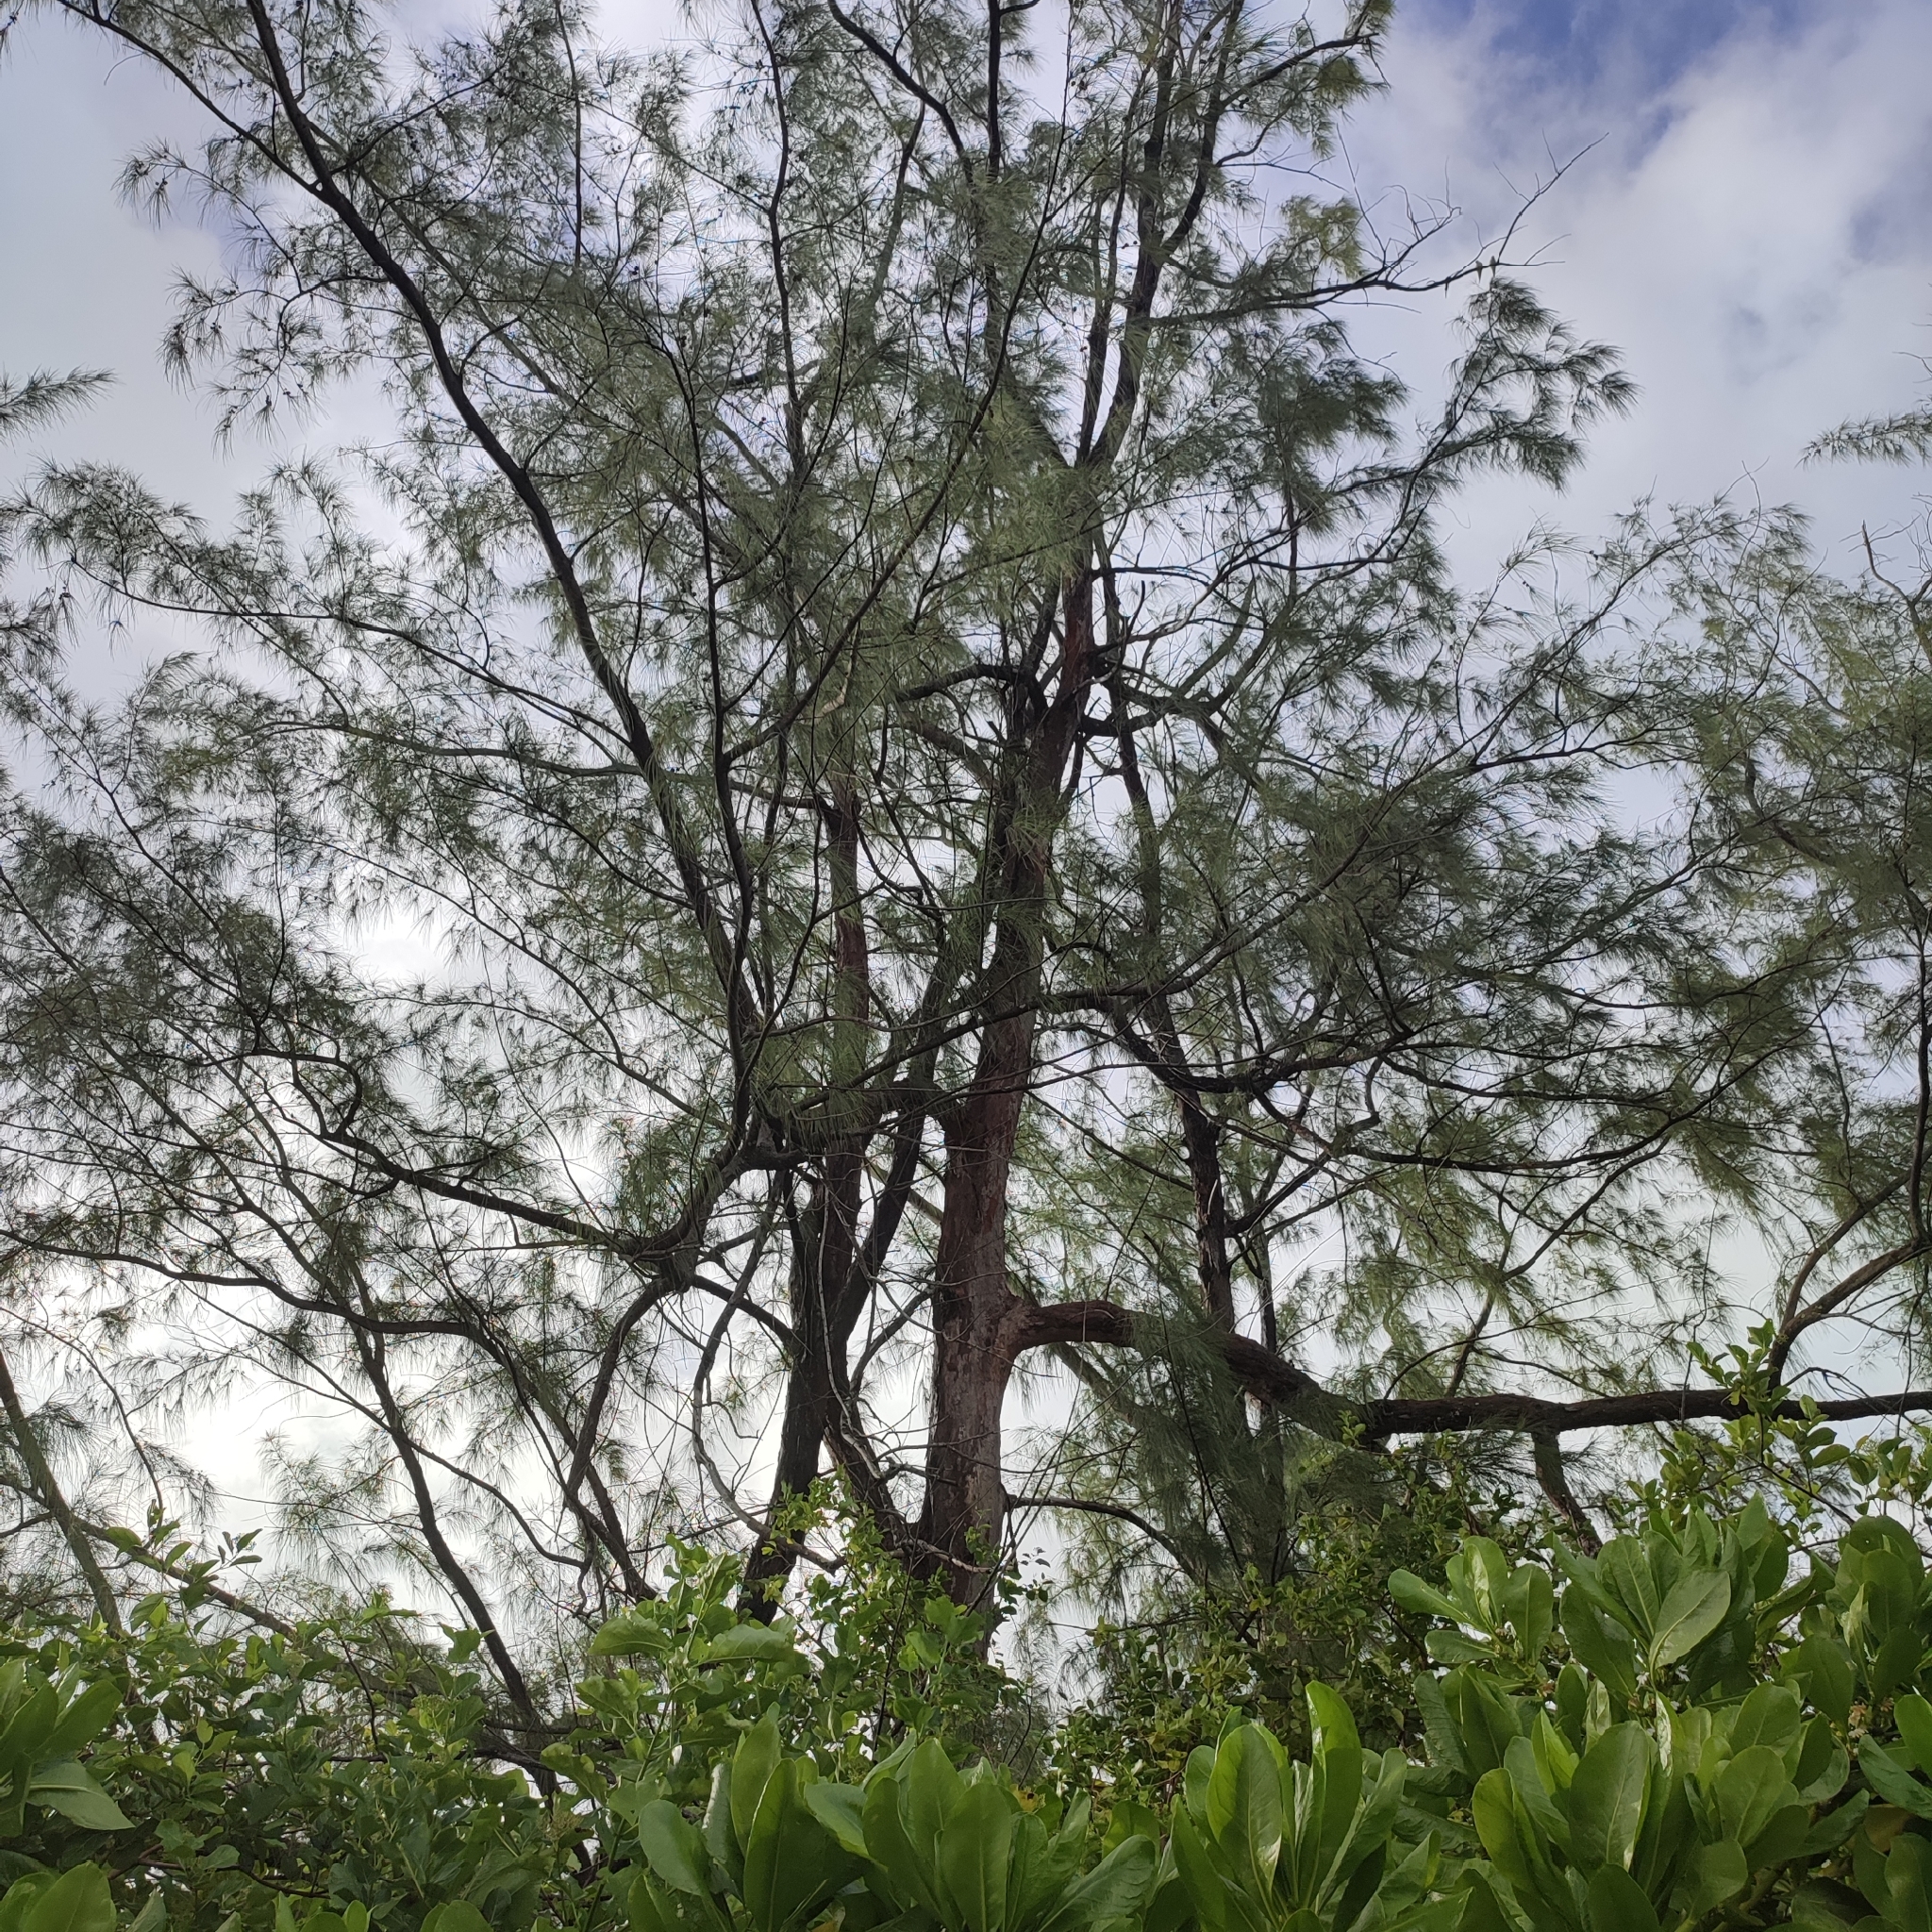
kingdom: Plantae
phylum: Tracheophyta
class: Magnoliopsida
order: Fagales
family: Casuarinaceae
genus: Casuarina
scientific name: Casuarina equisetifolia
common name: Beach sheoak
